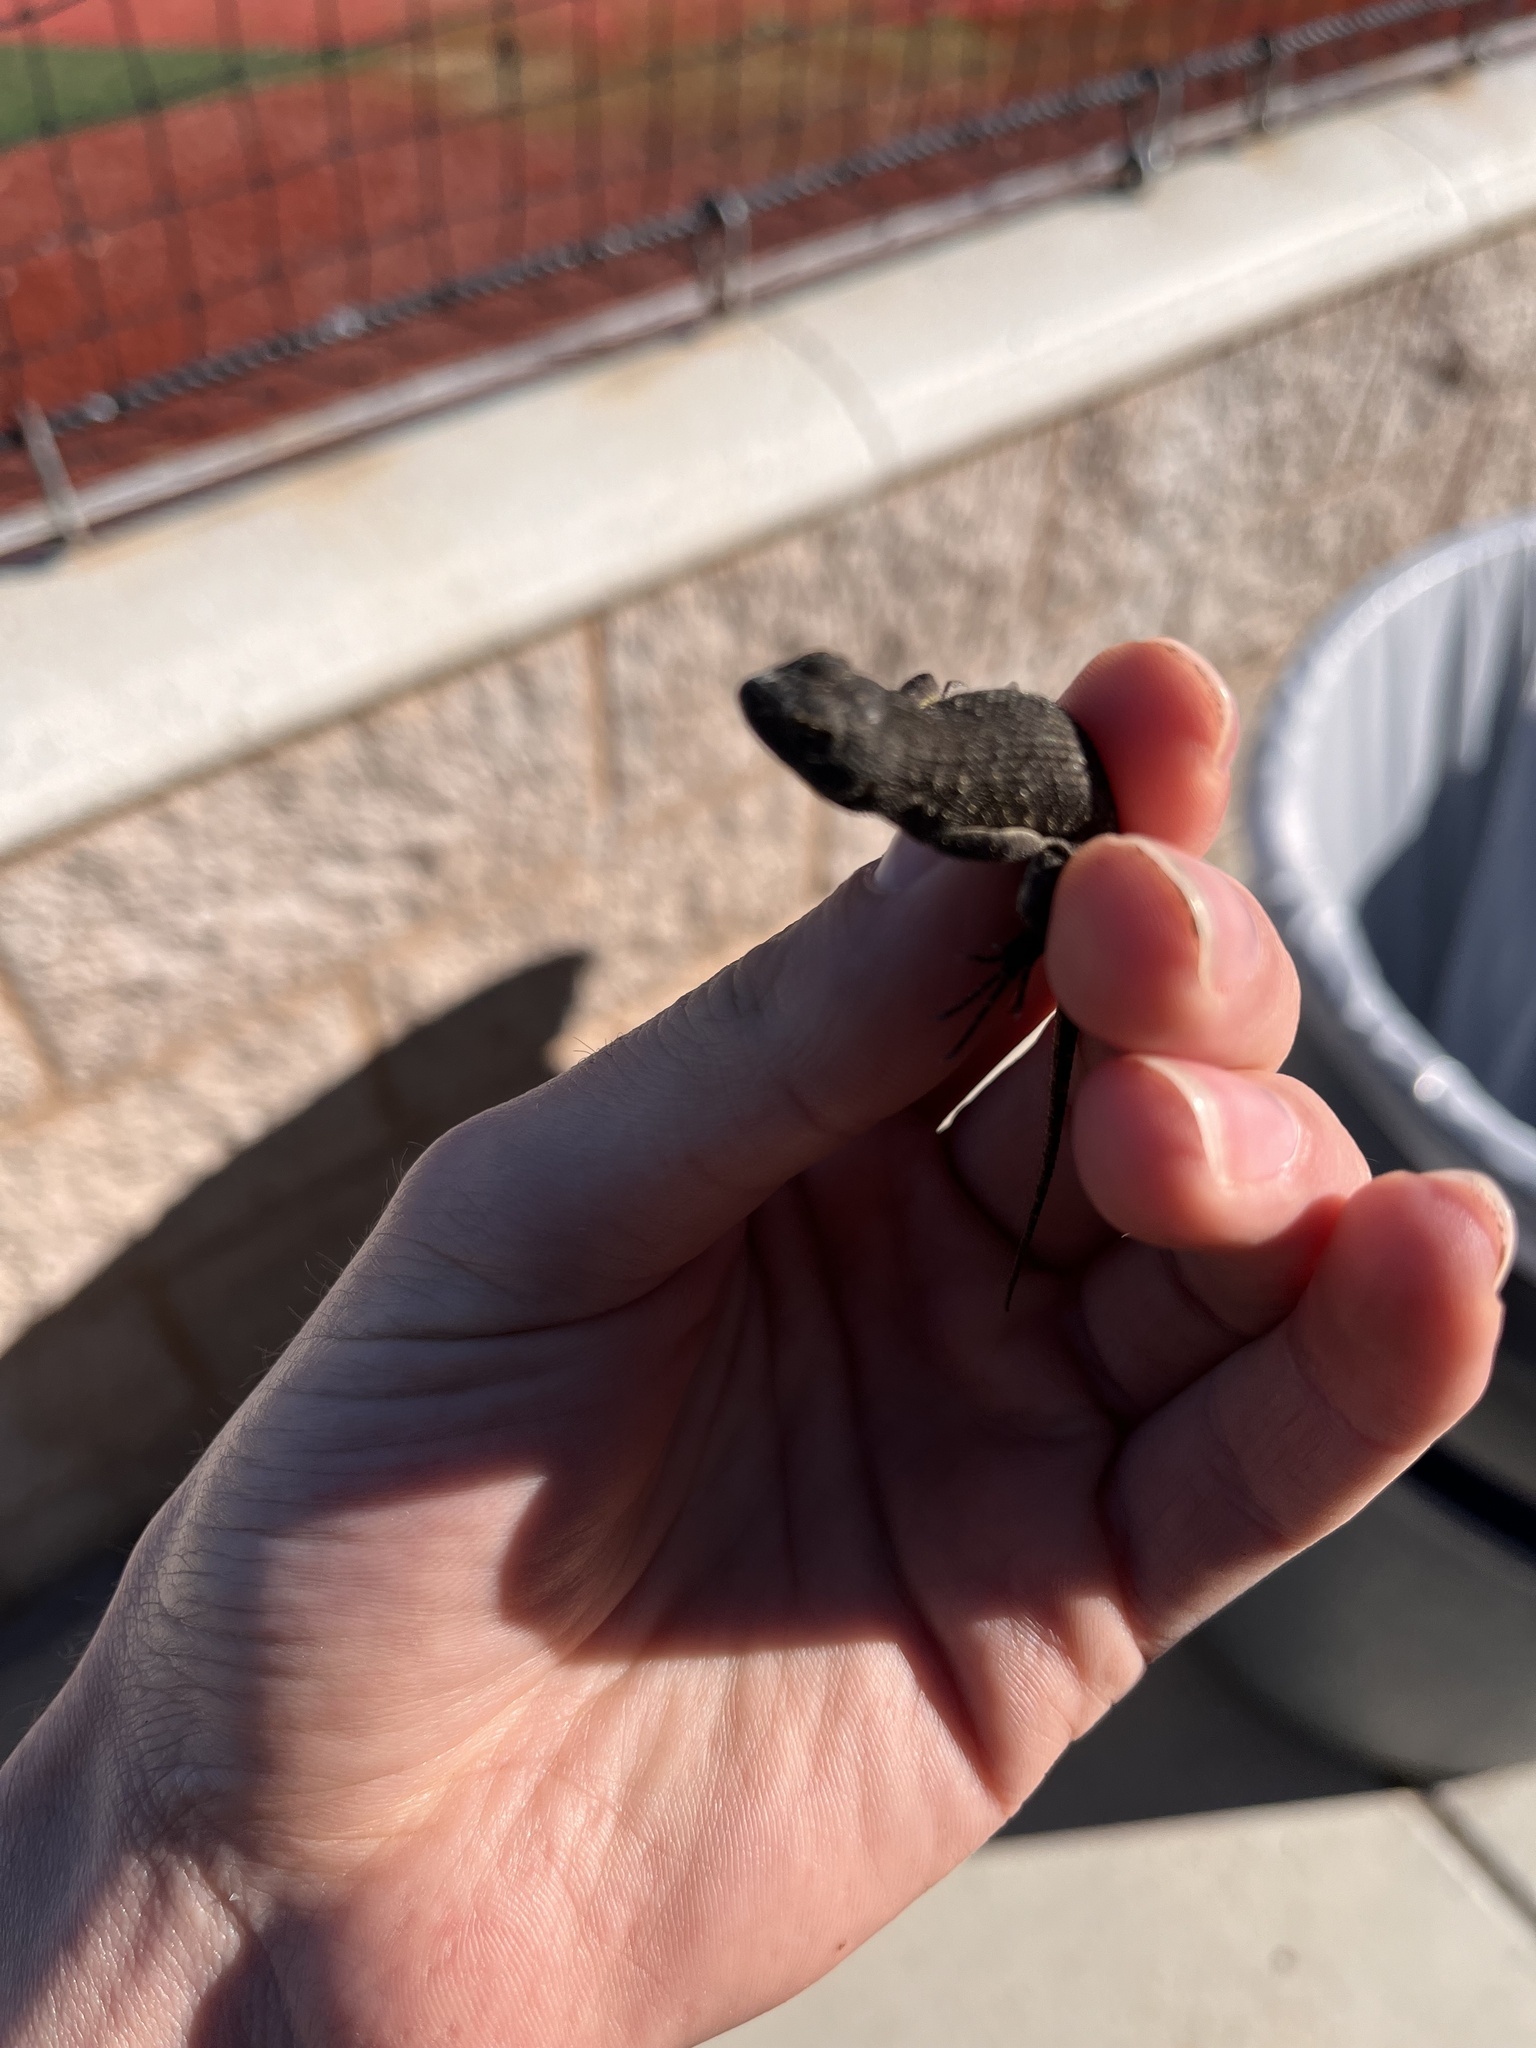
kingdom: Animalia
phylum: Chordata
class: Squamata
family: Phrynosomatidae
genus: Sceloporus
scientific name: Sceloporus occidentalis
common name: Western fence lizard
